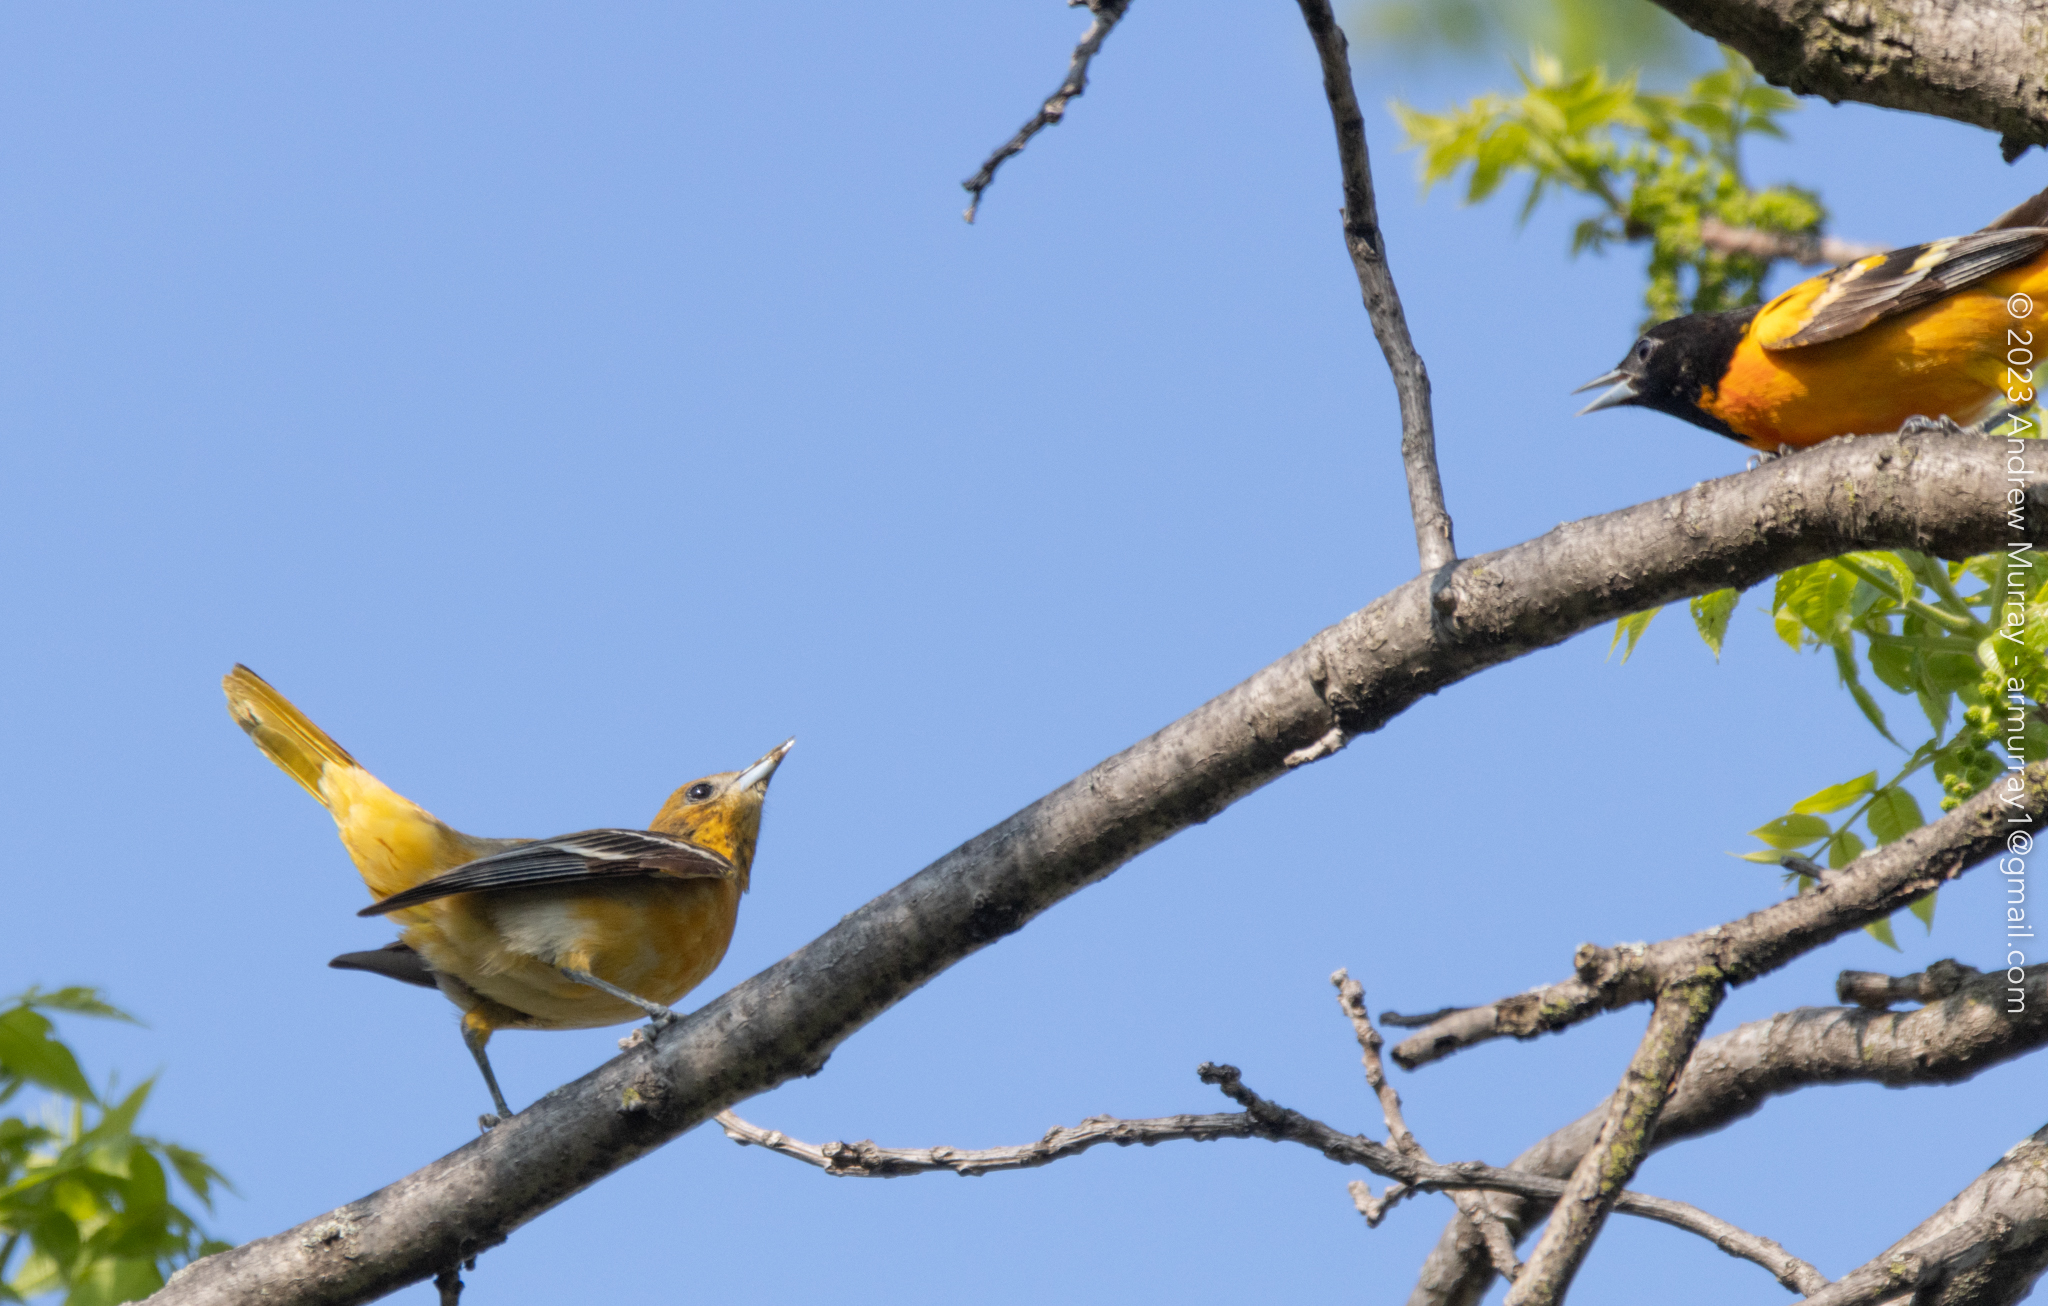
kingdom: Animalia
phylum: Chordata
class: Aves
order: Passeriformes
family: Icteridae
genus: Icterus
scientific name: Icterus galbula
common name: Baltimore oriole
